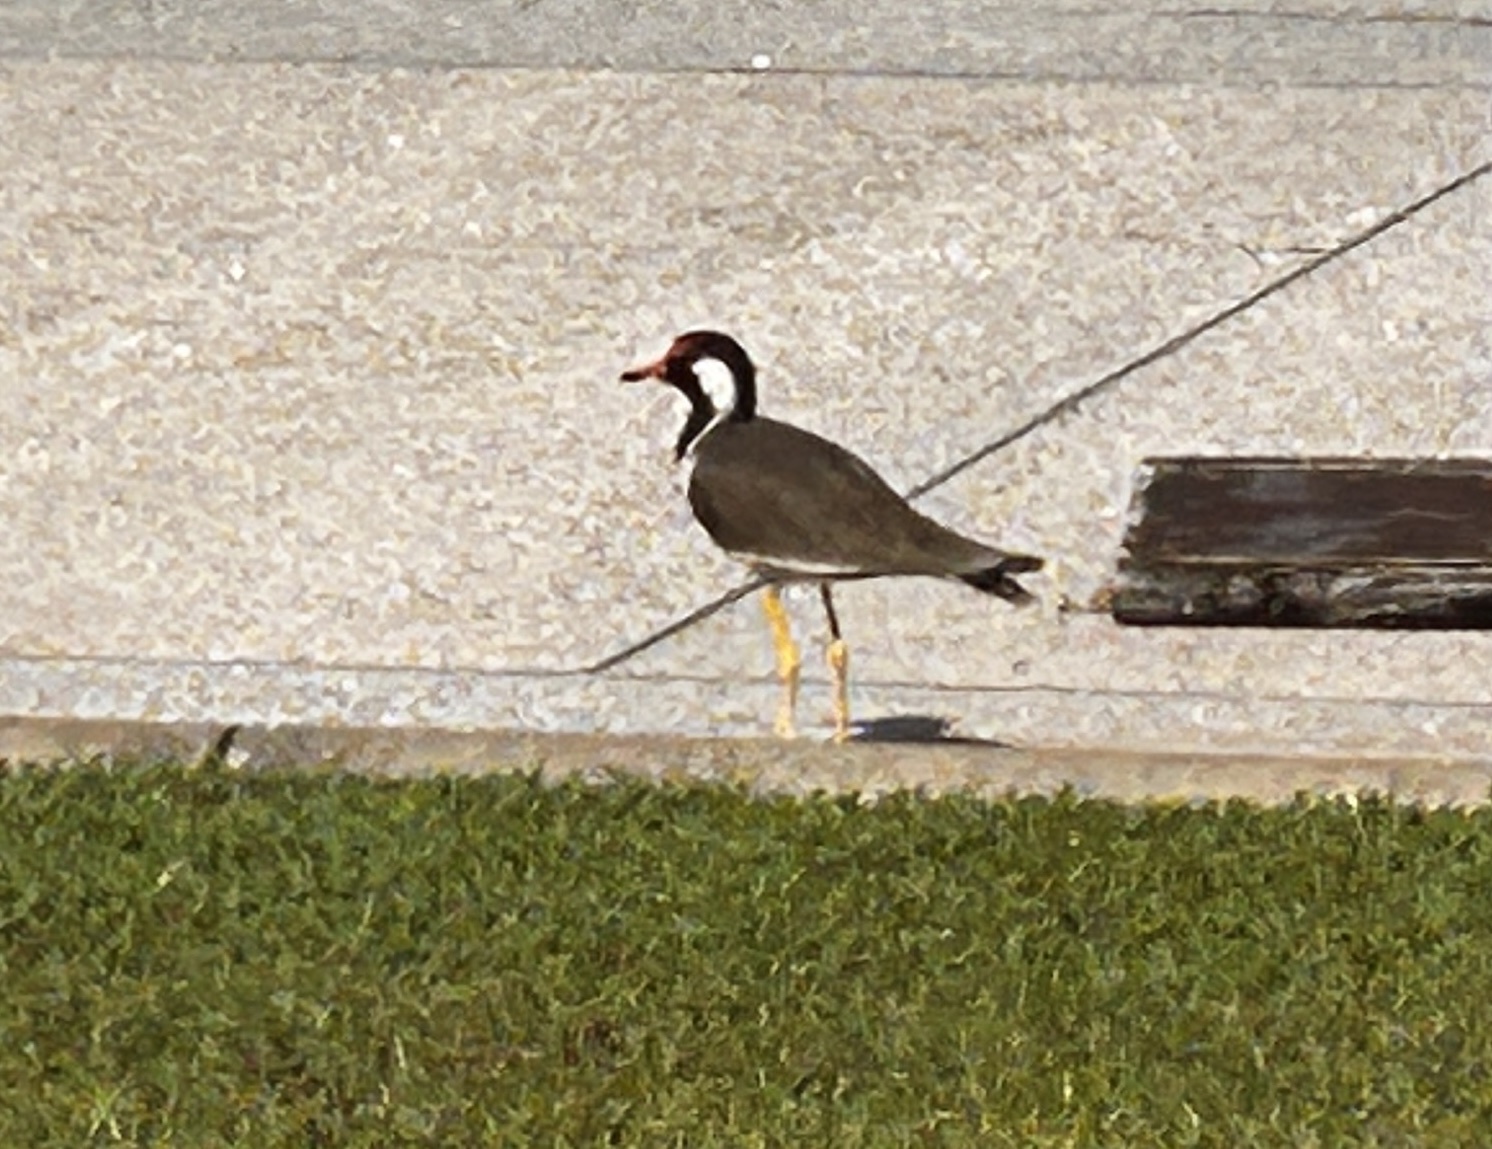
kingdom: Animalia
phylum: Chordata
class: Aves
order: Charadriiformes
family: Charadriidae
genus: Vanellus
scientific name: Vanellus indicus
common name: Red-wattled lapwing
